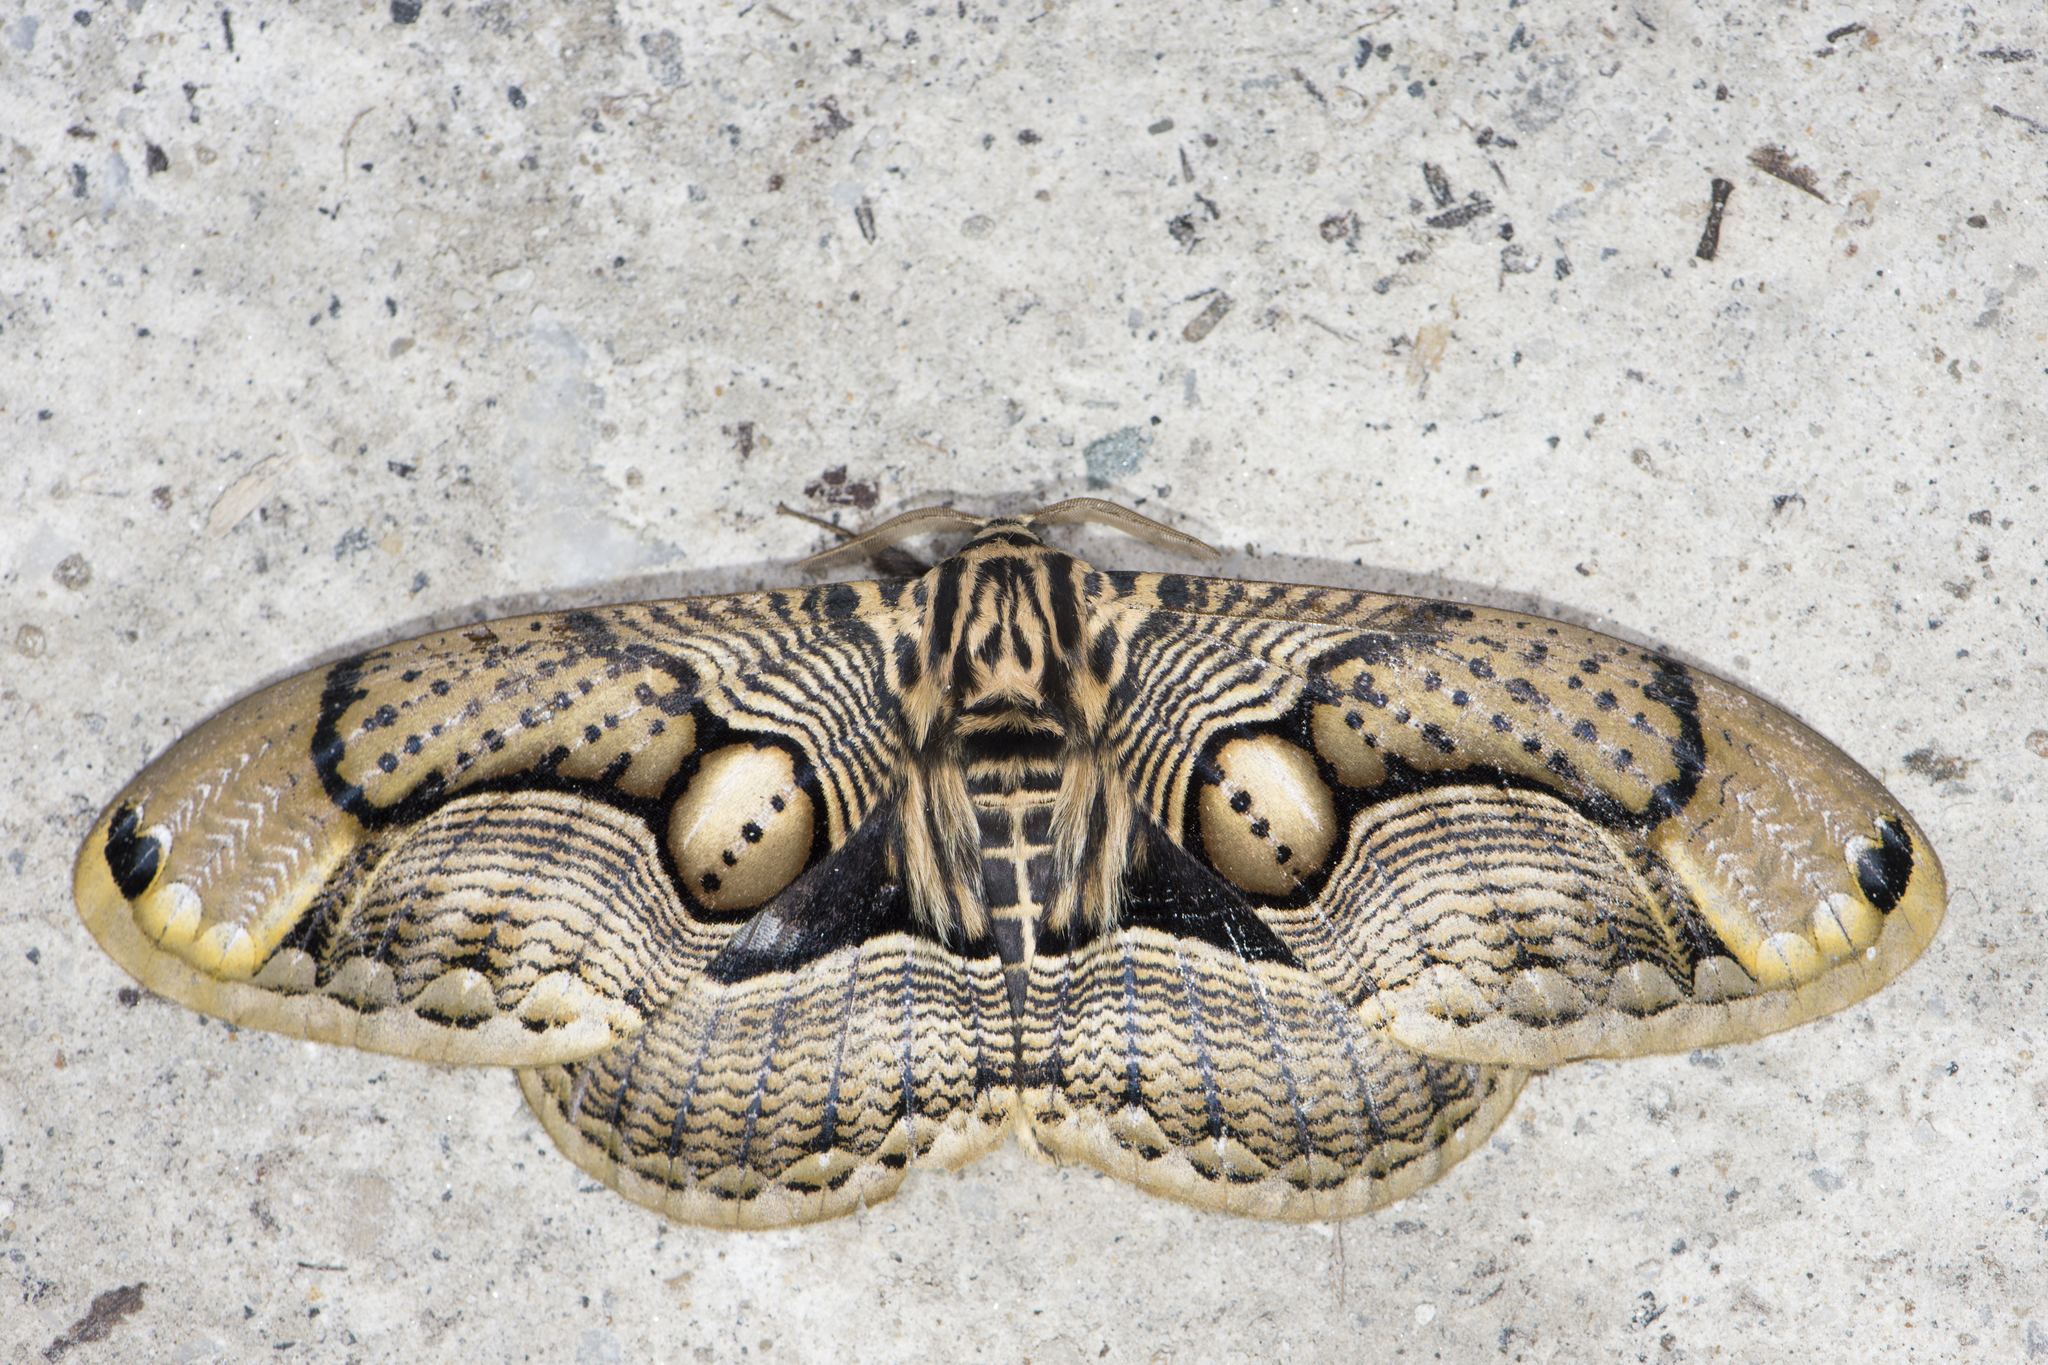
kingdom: Animalia
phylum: Arthropoda
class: Insecta
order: Lepidoptera
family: Brahmaeidae
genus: Brahmaea
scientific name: Brahmaea wallichii
